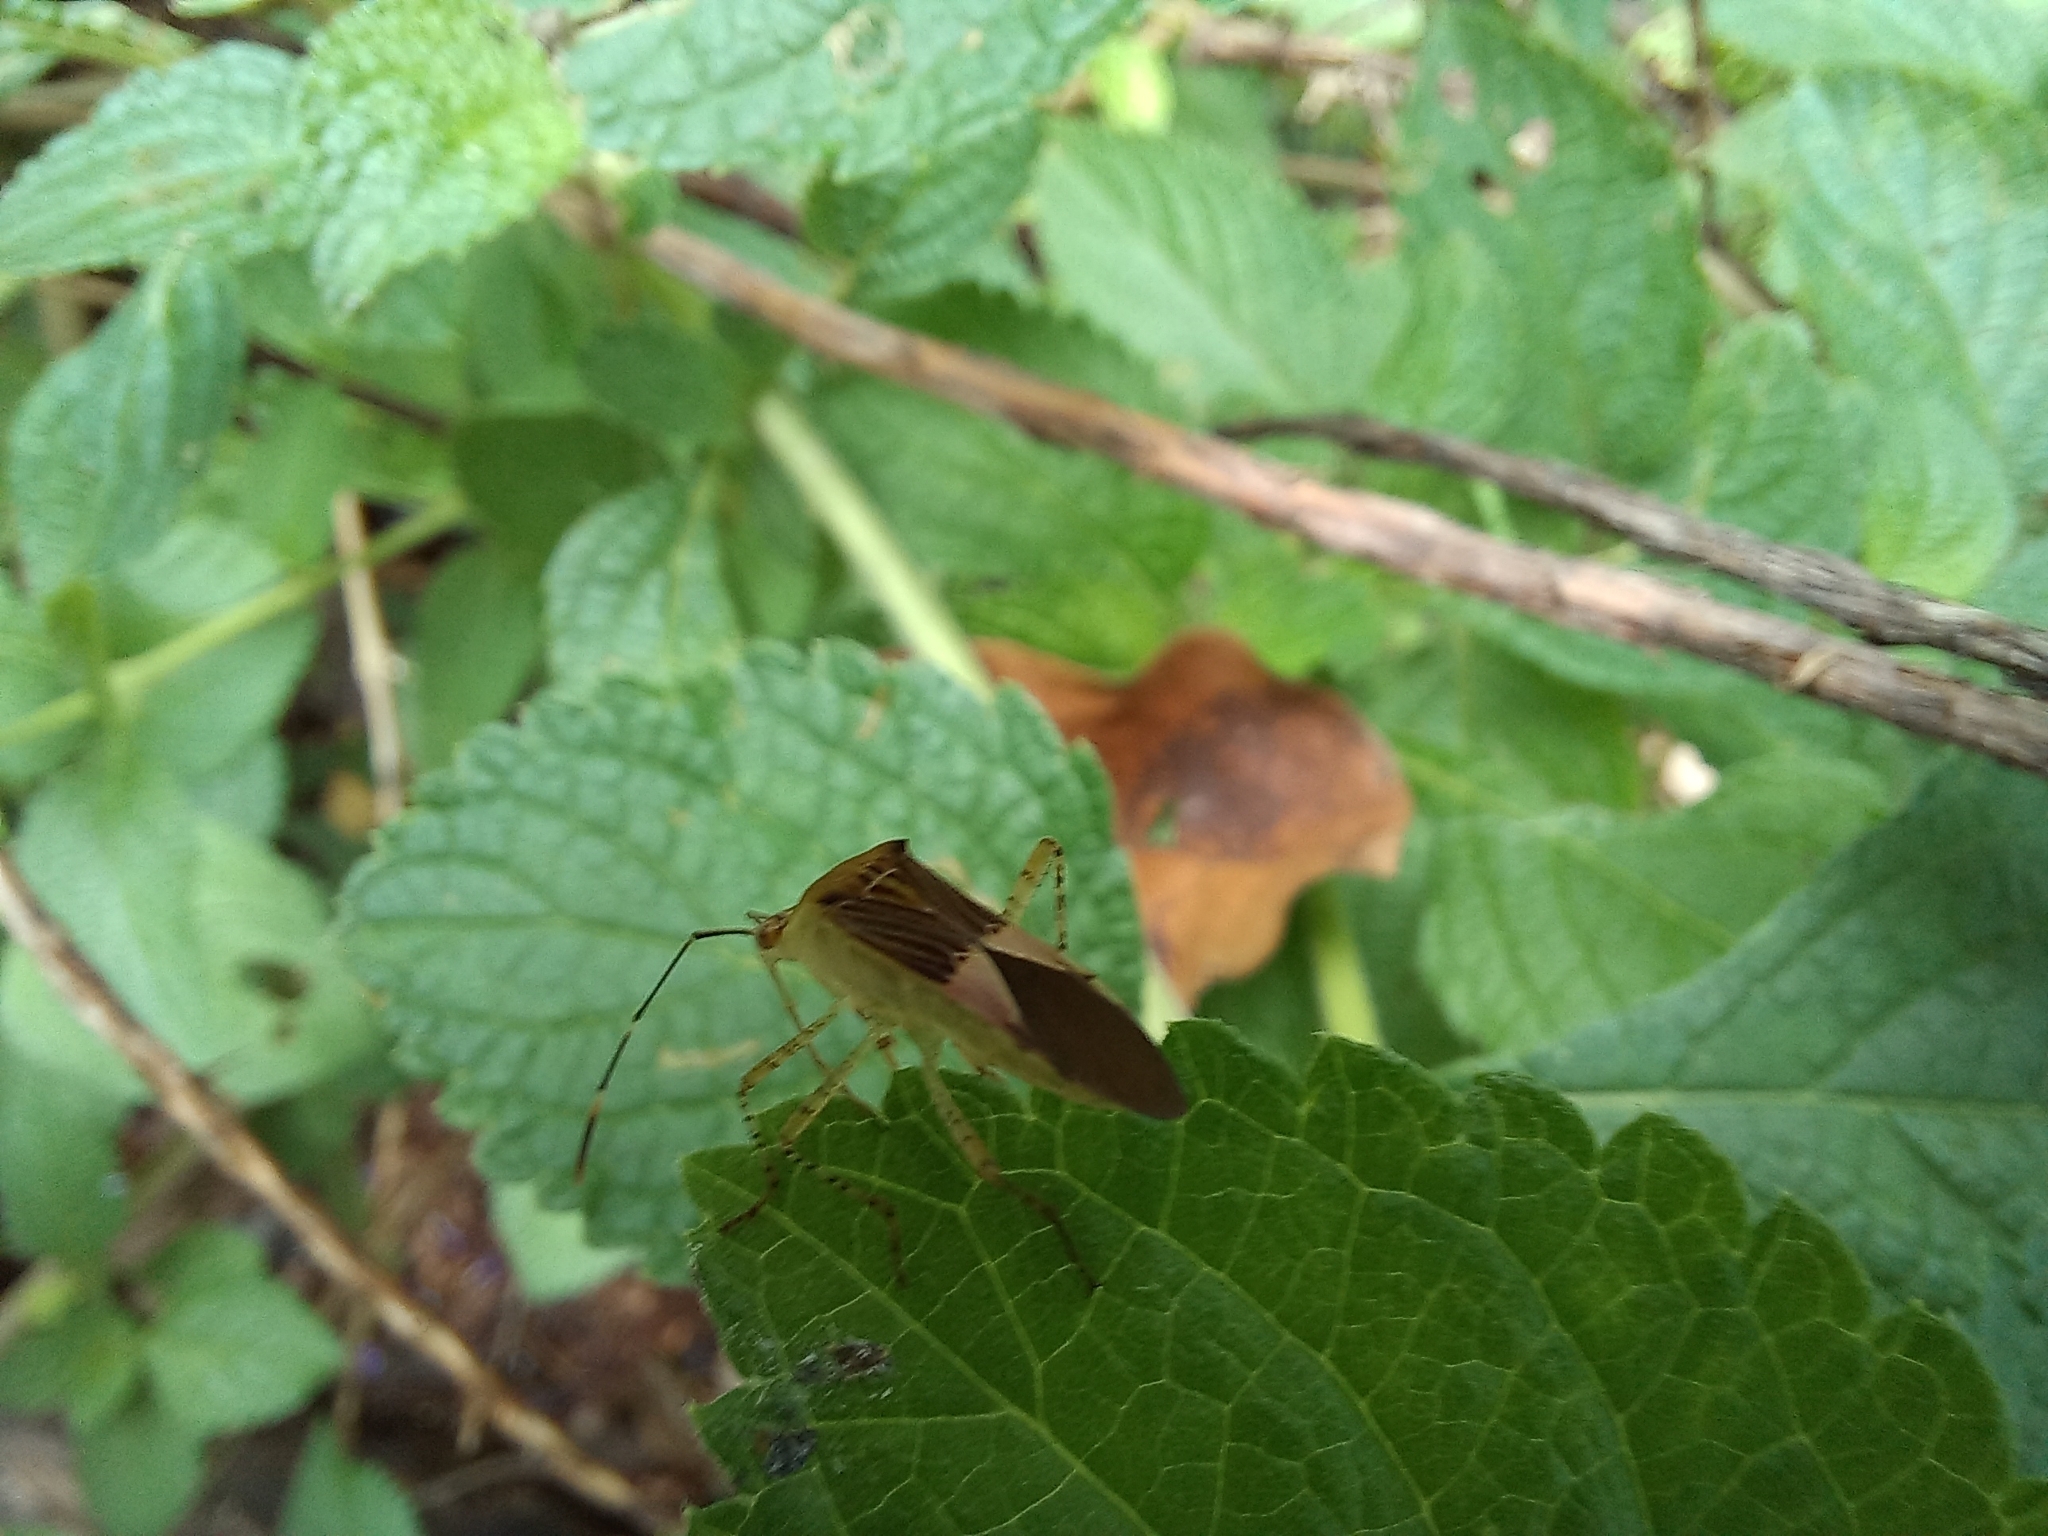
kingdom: Animalia
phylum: Arthropoda
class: Insecta
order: Hemiptera
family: Coreidae
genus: Hypselonotus
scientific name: Hypselonotus fulvus
